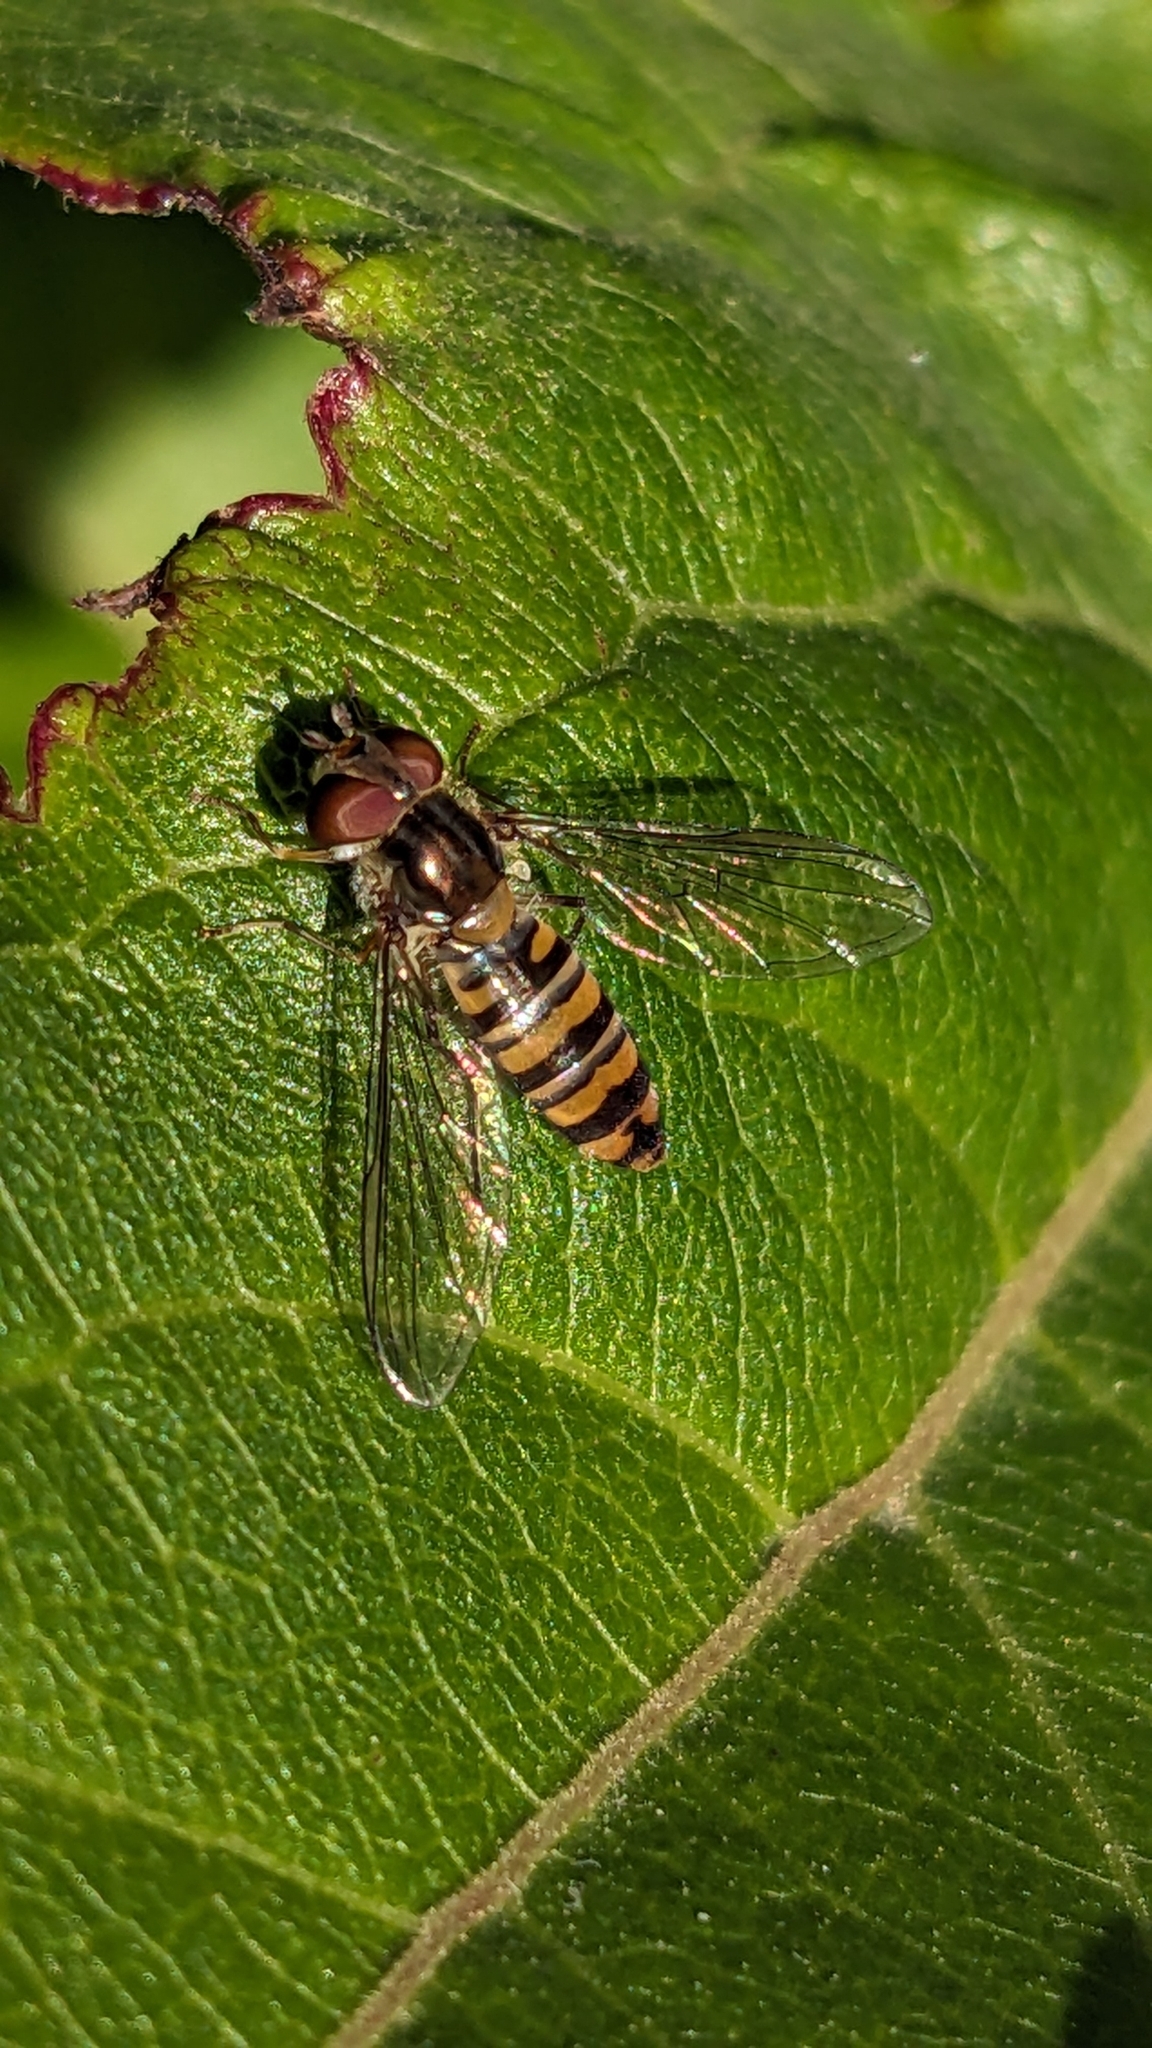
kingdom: Animalia
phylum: Arthropoda
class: Insecta
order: Diptera
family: Syrphidae
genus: Episyrphus
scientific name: Episyrphus balteatus
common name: Marmalade hoverfly
